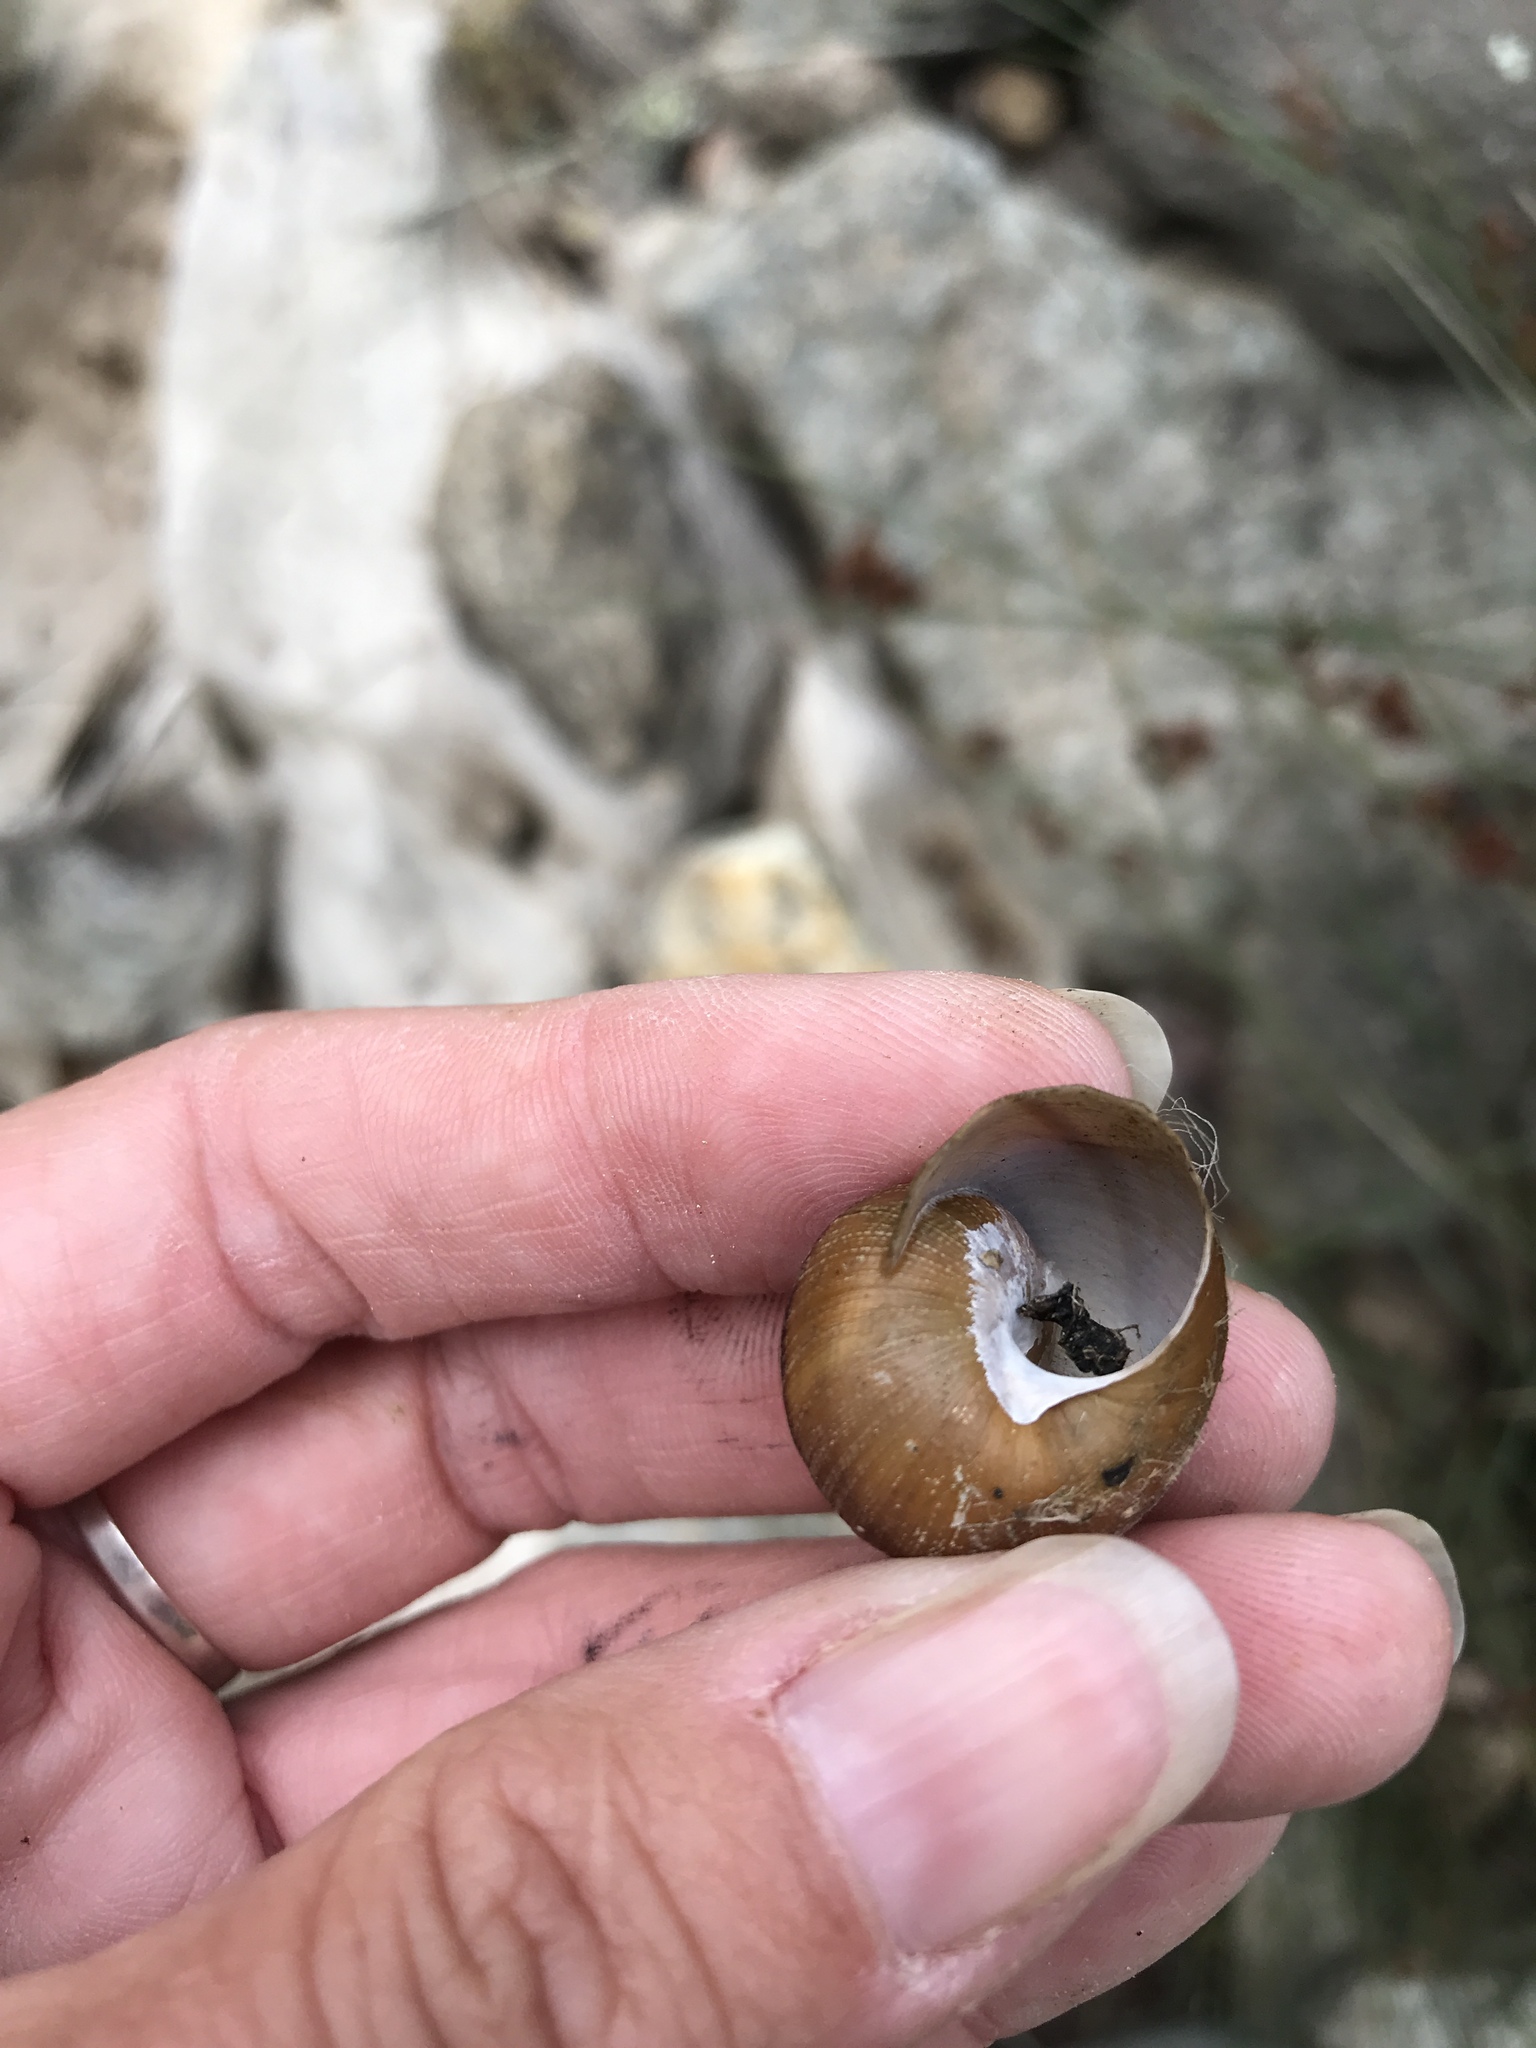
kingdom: Animalia
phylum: Mollusca
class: Gastropoda
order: Stylommatophora
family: Xanthonychidae
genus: Xerarionta
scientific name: Xerarionta intercisa
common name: Plain cactus snail
